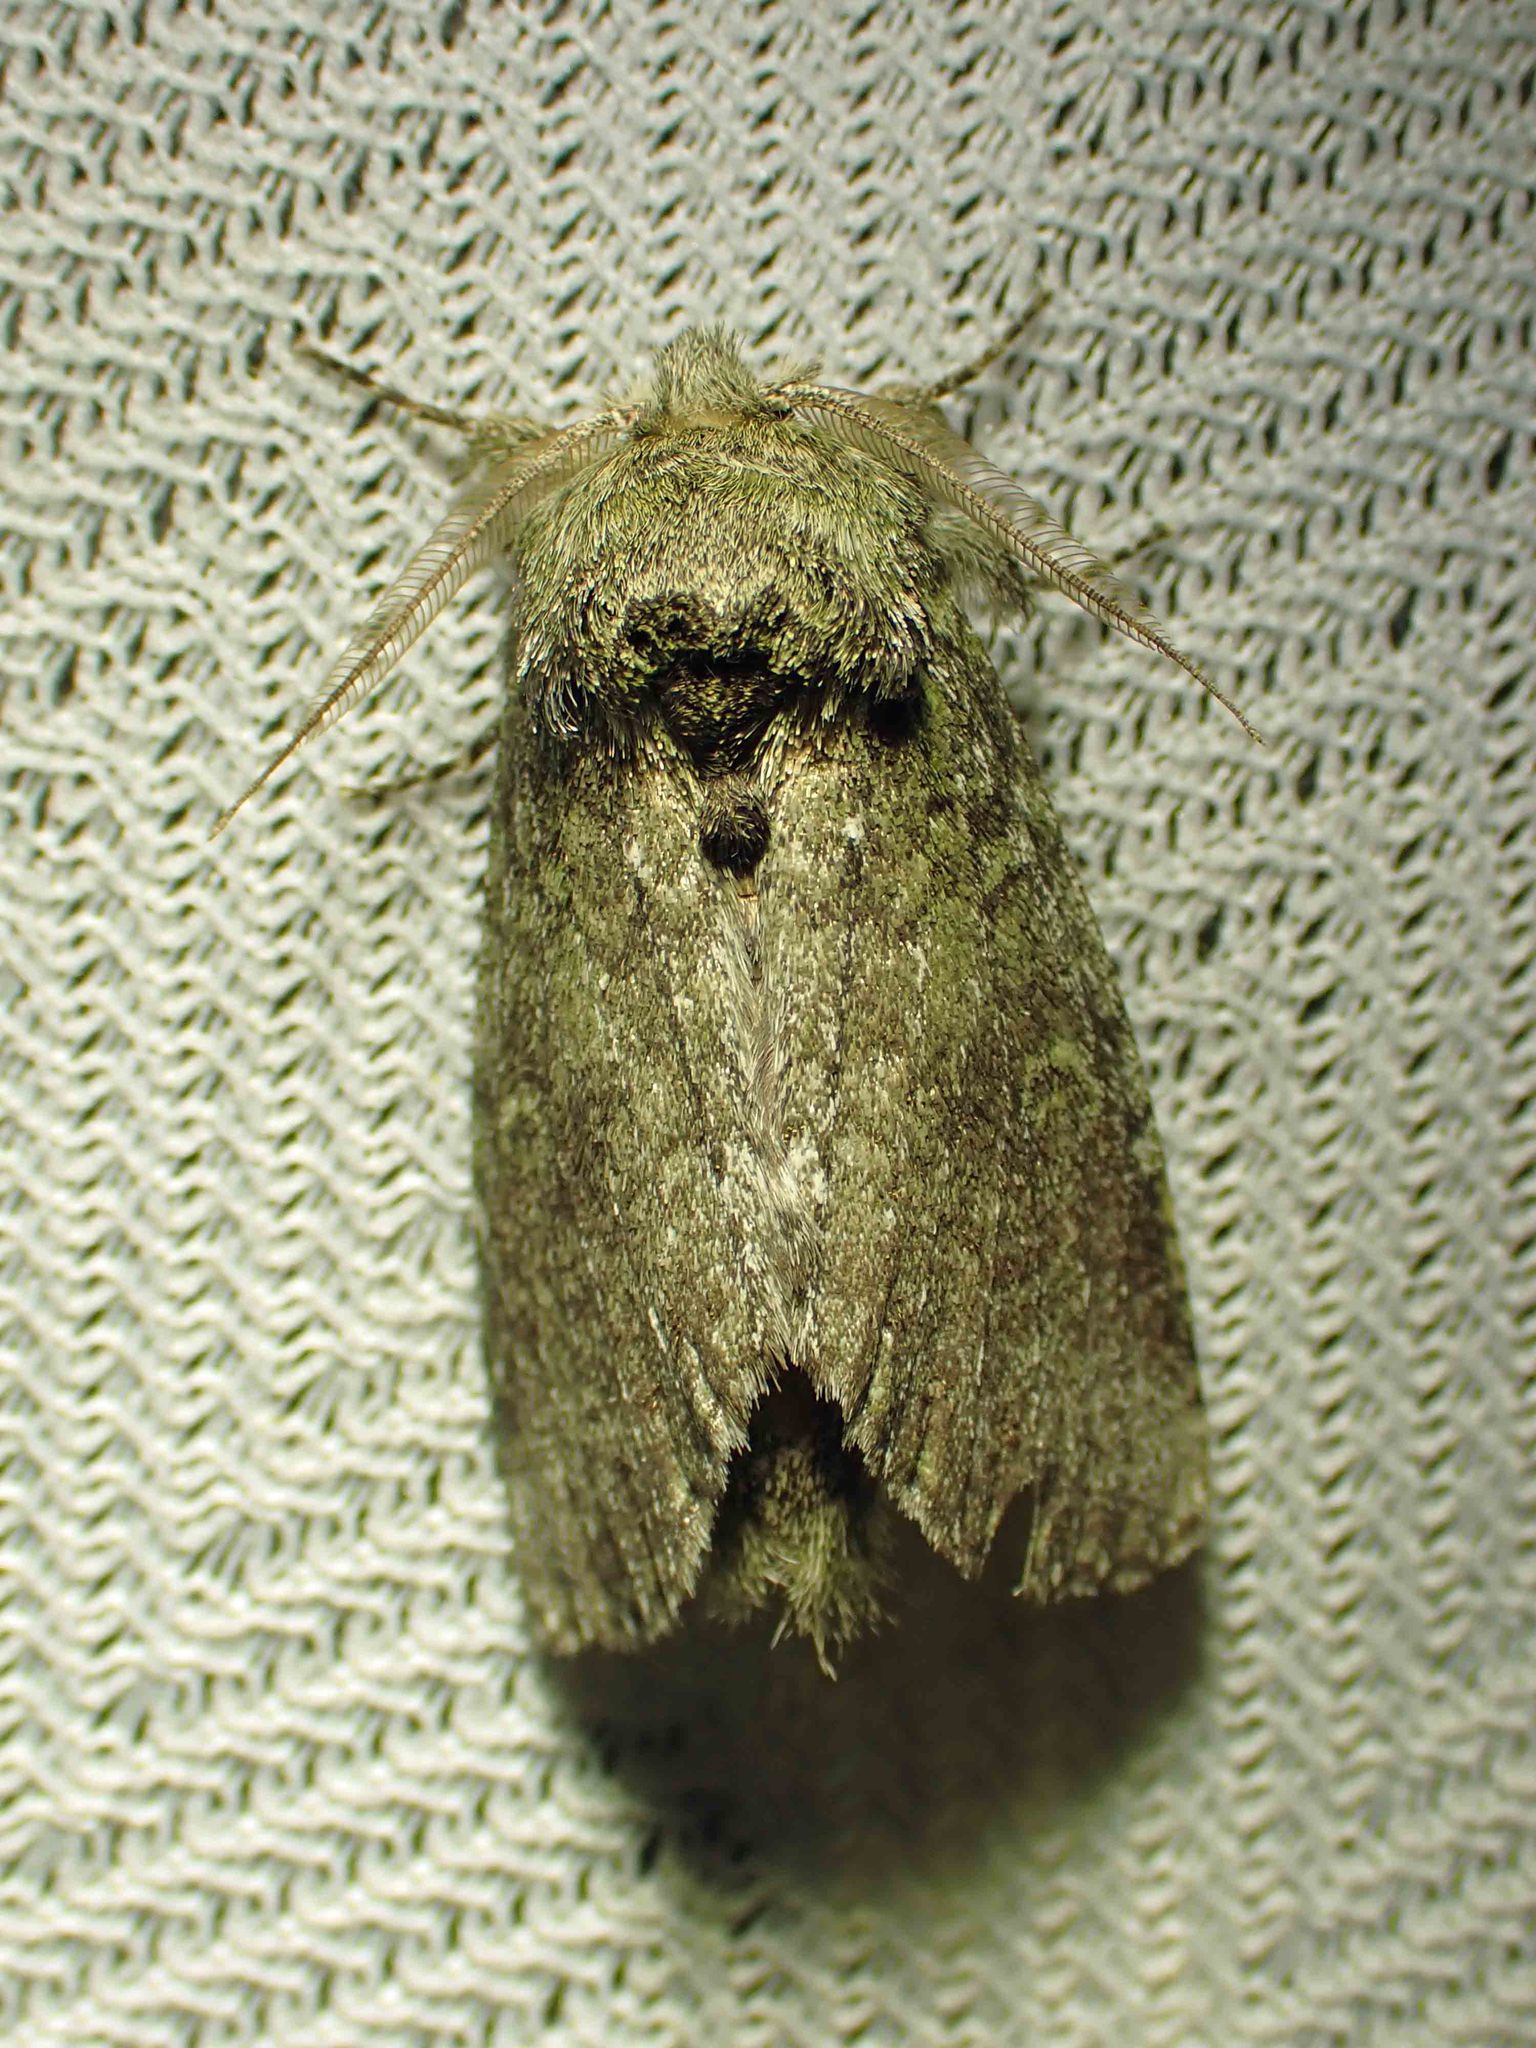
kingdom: Animalia
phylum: Arthropoda
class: Insecta
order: Lepidoptera
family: Notodontidae
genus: Disphragis
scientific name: Disphragis Cecrita guttivitta
